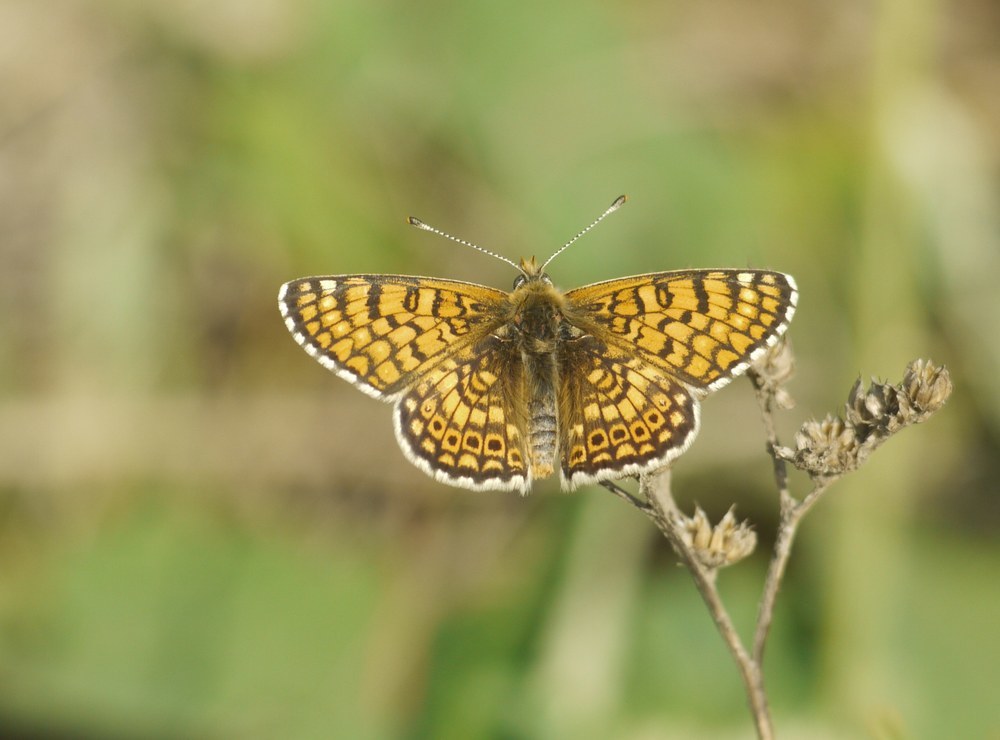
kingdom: Animalia
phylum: Arthropoda
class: Insecta
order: Lepidoptera
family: Nymphalidae
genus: Melitaea
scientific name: Melitaea cinxia
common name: Glanville fritillary
